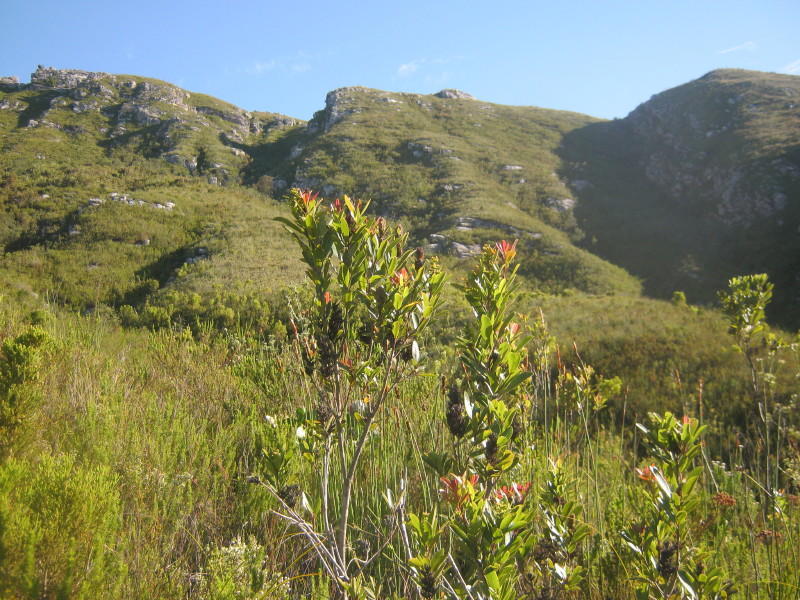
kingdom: Plantae
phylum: Tracheophyta
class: Magnoliopsida
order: Sapindales
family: Anacardiaceae
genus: Laurophyllus
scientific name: Laurophyllus capensis
